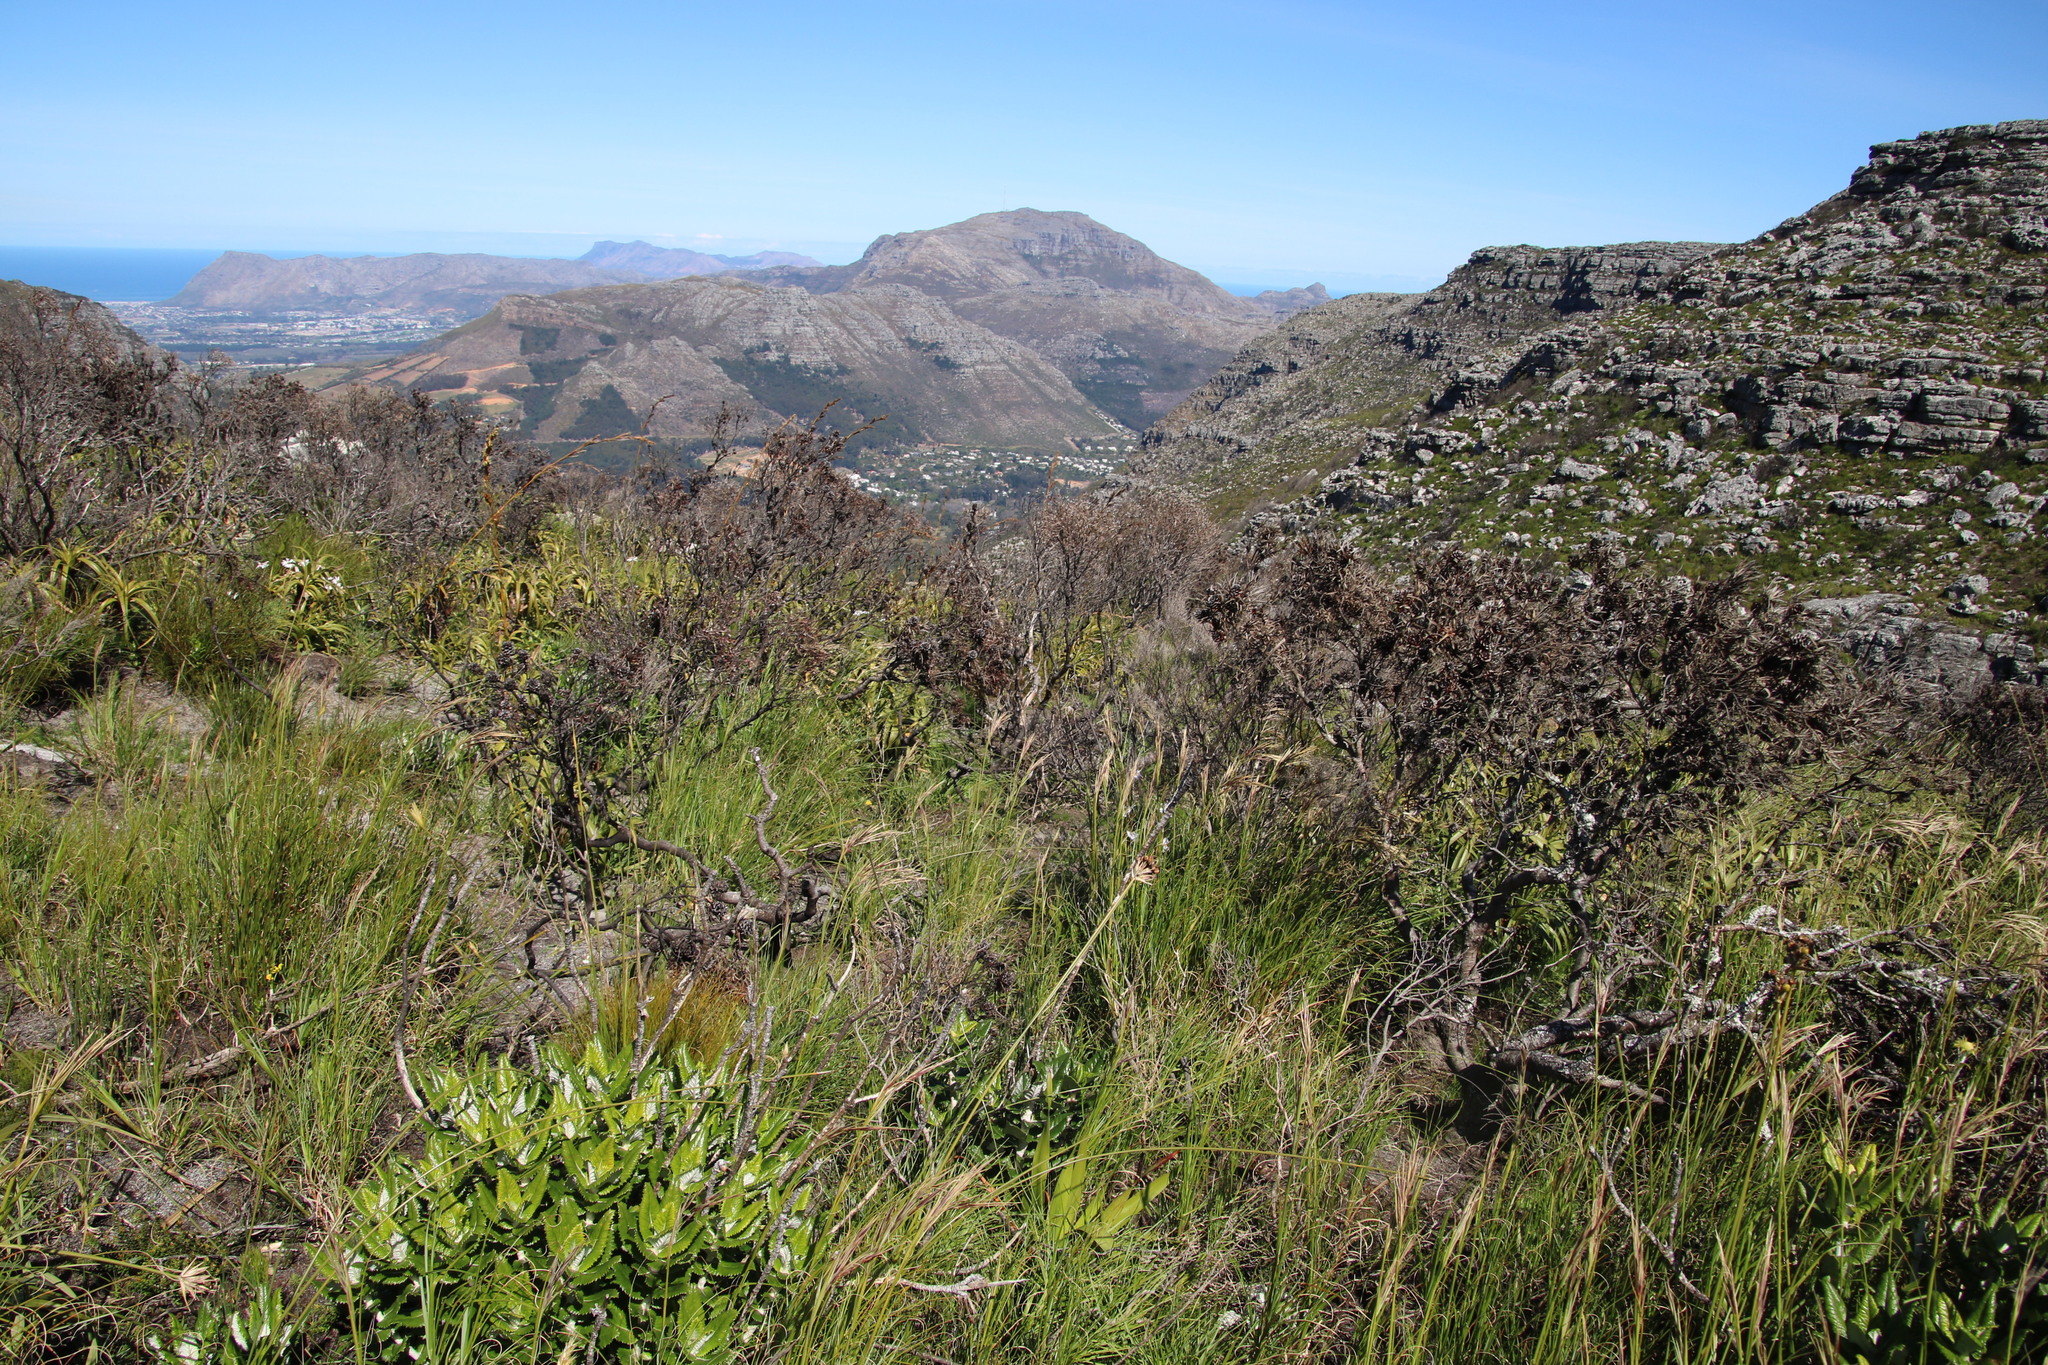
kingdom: Plantae
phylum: Tracheophyta
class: Magnoliopsida
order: Proteales
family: Proteaceae
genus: Leucadendron
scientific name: Leucadendron xanthoconus
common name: Sickle-leaf conebush
